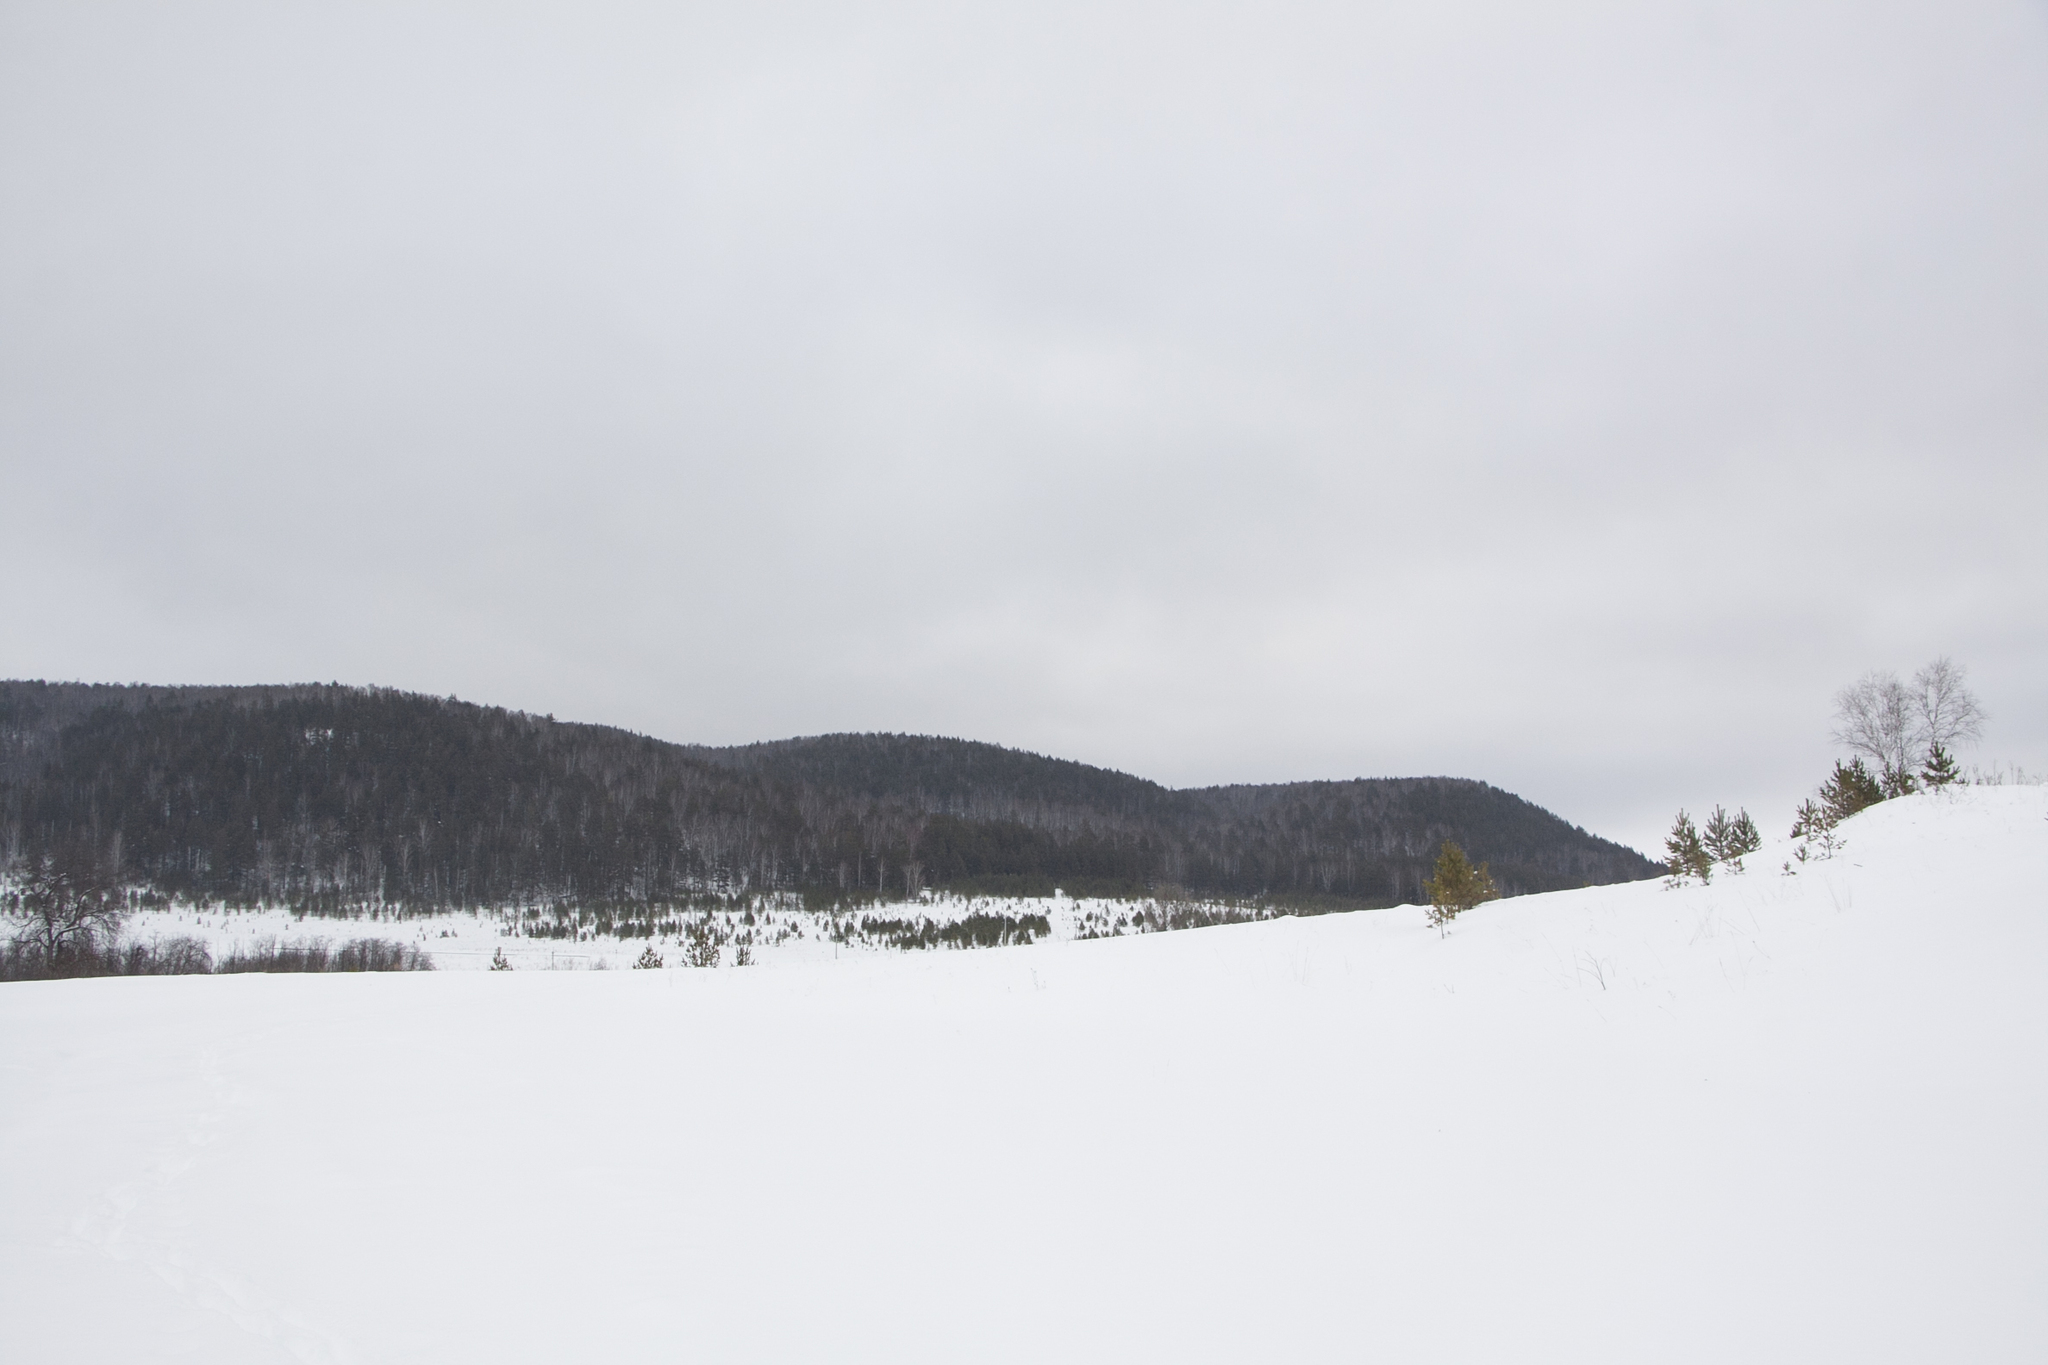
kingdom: Plantae
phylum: Tracheophyta
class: Pinopsida
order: Pinales
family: Pinaceae
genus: Pinus
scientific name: Pinus sylvestris
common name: Scots pine
